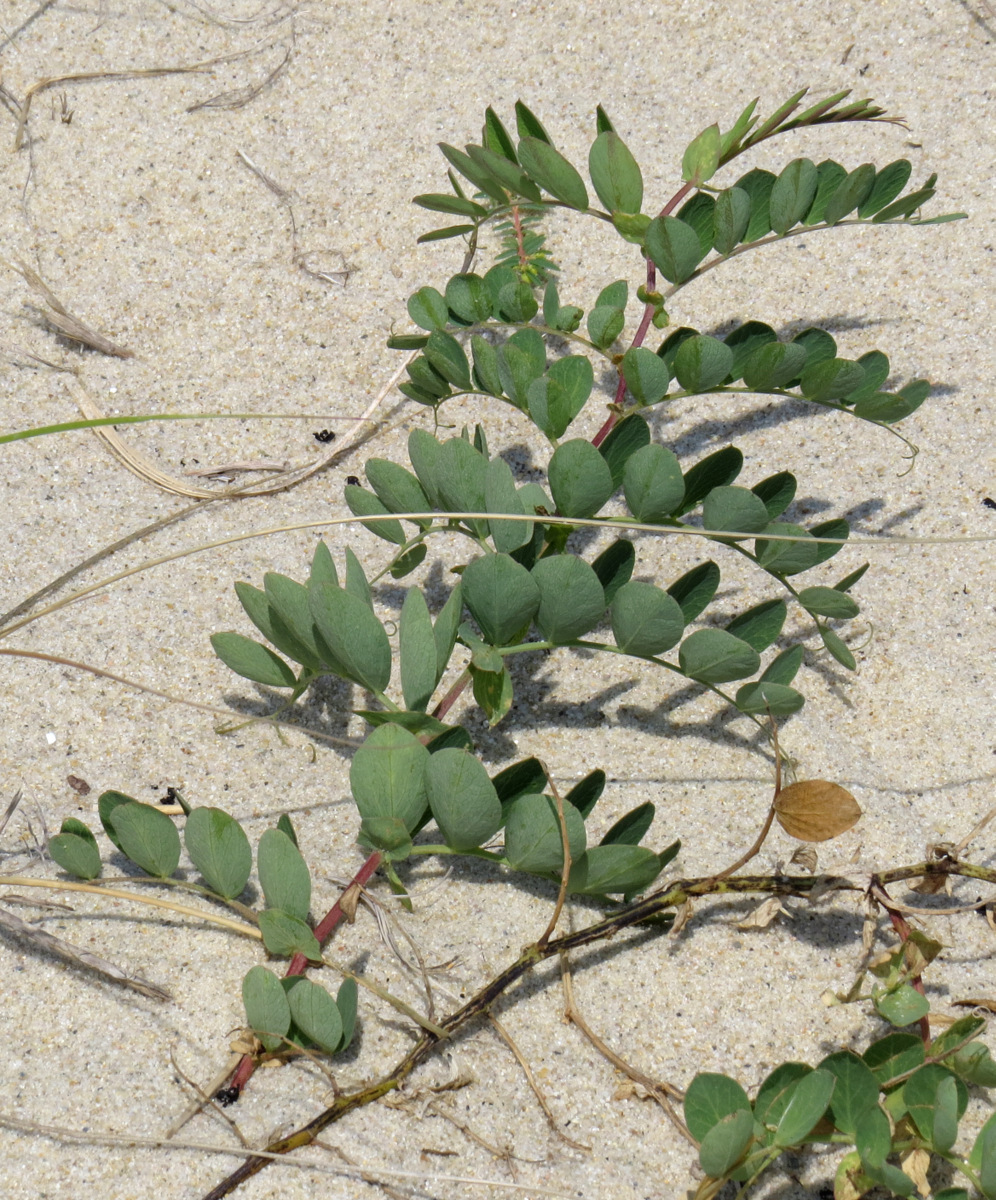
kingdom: Plantae
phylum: Tracheophyta
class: Magnoliopsida
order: Fabales
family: Fabaceae
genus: Lathyrus
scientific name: Lathyrus japonicus
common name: Sea pea
